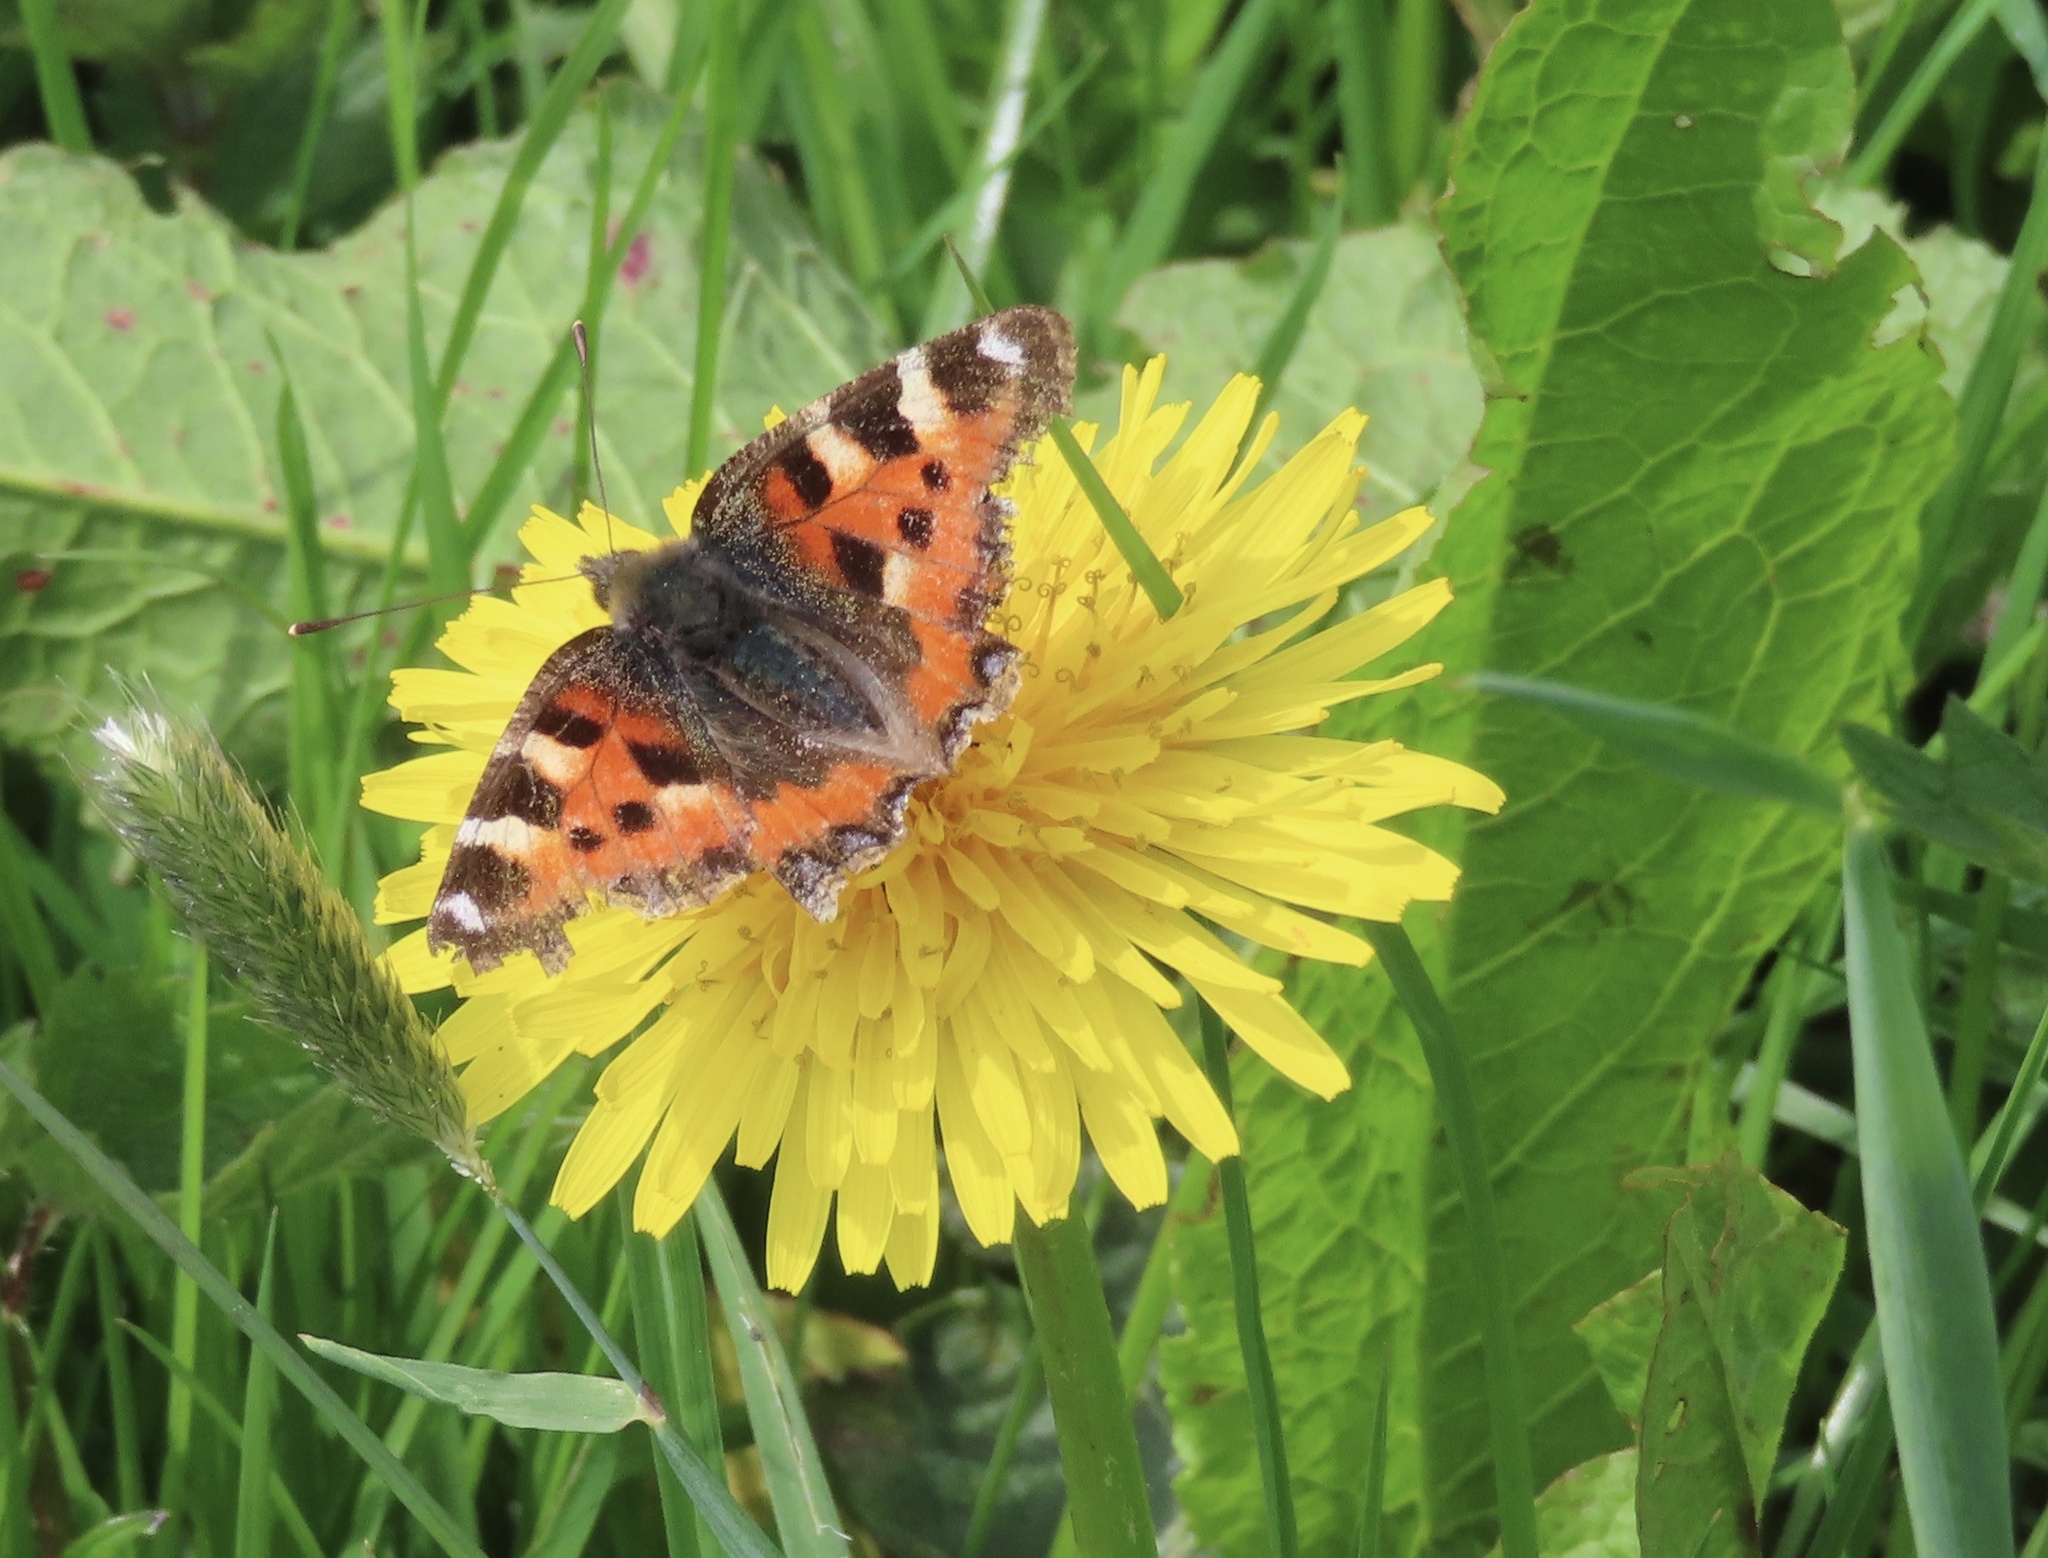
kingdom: Animalia
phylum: Arthropoda
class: Insecta
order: Lepidoptera
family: Nymphalidae
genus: Aglais
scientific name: Aglais urticae
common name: Small tortoiseshell
